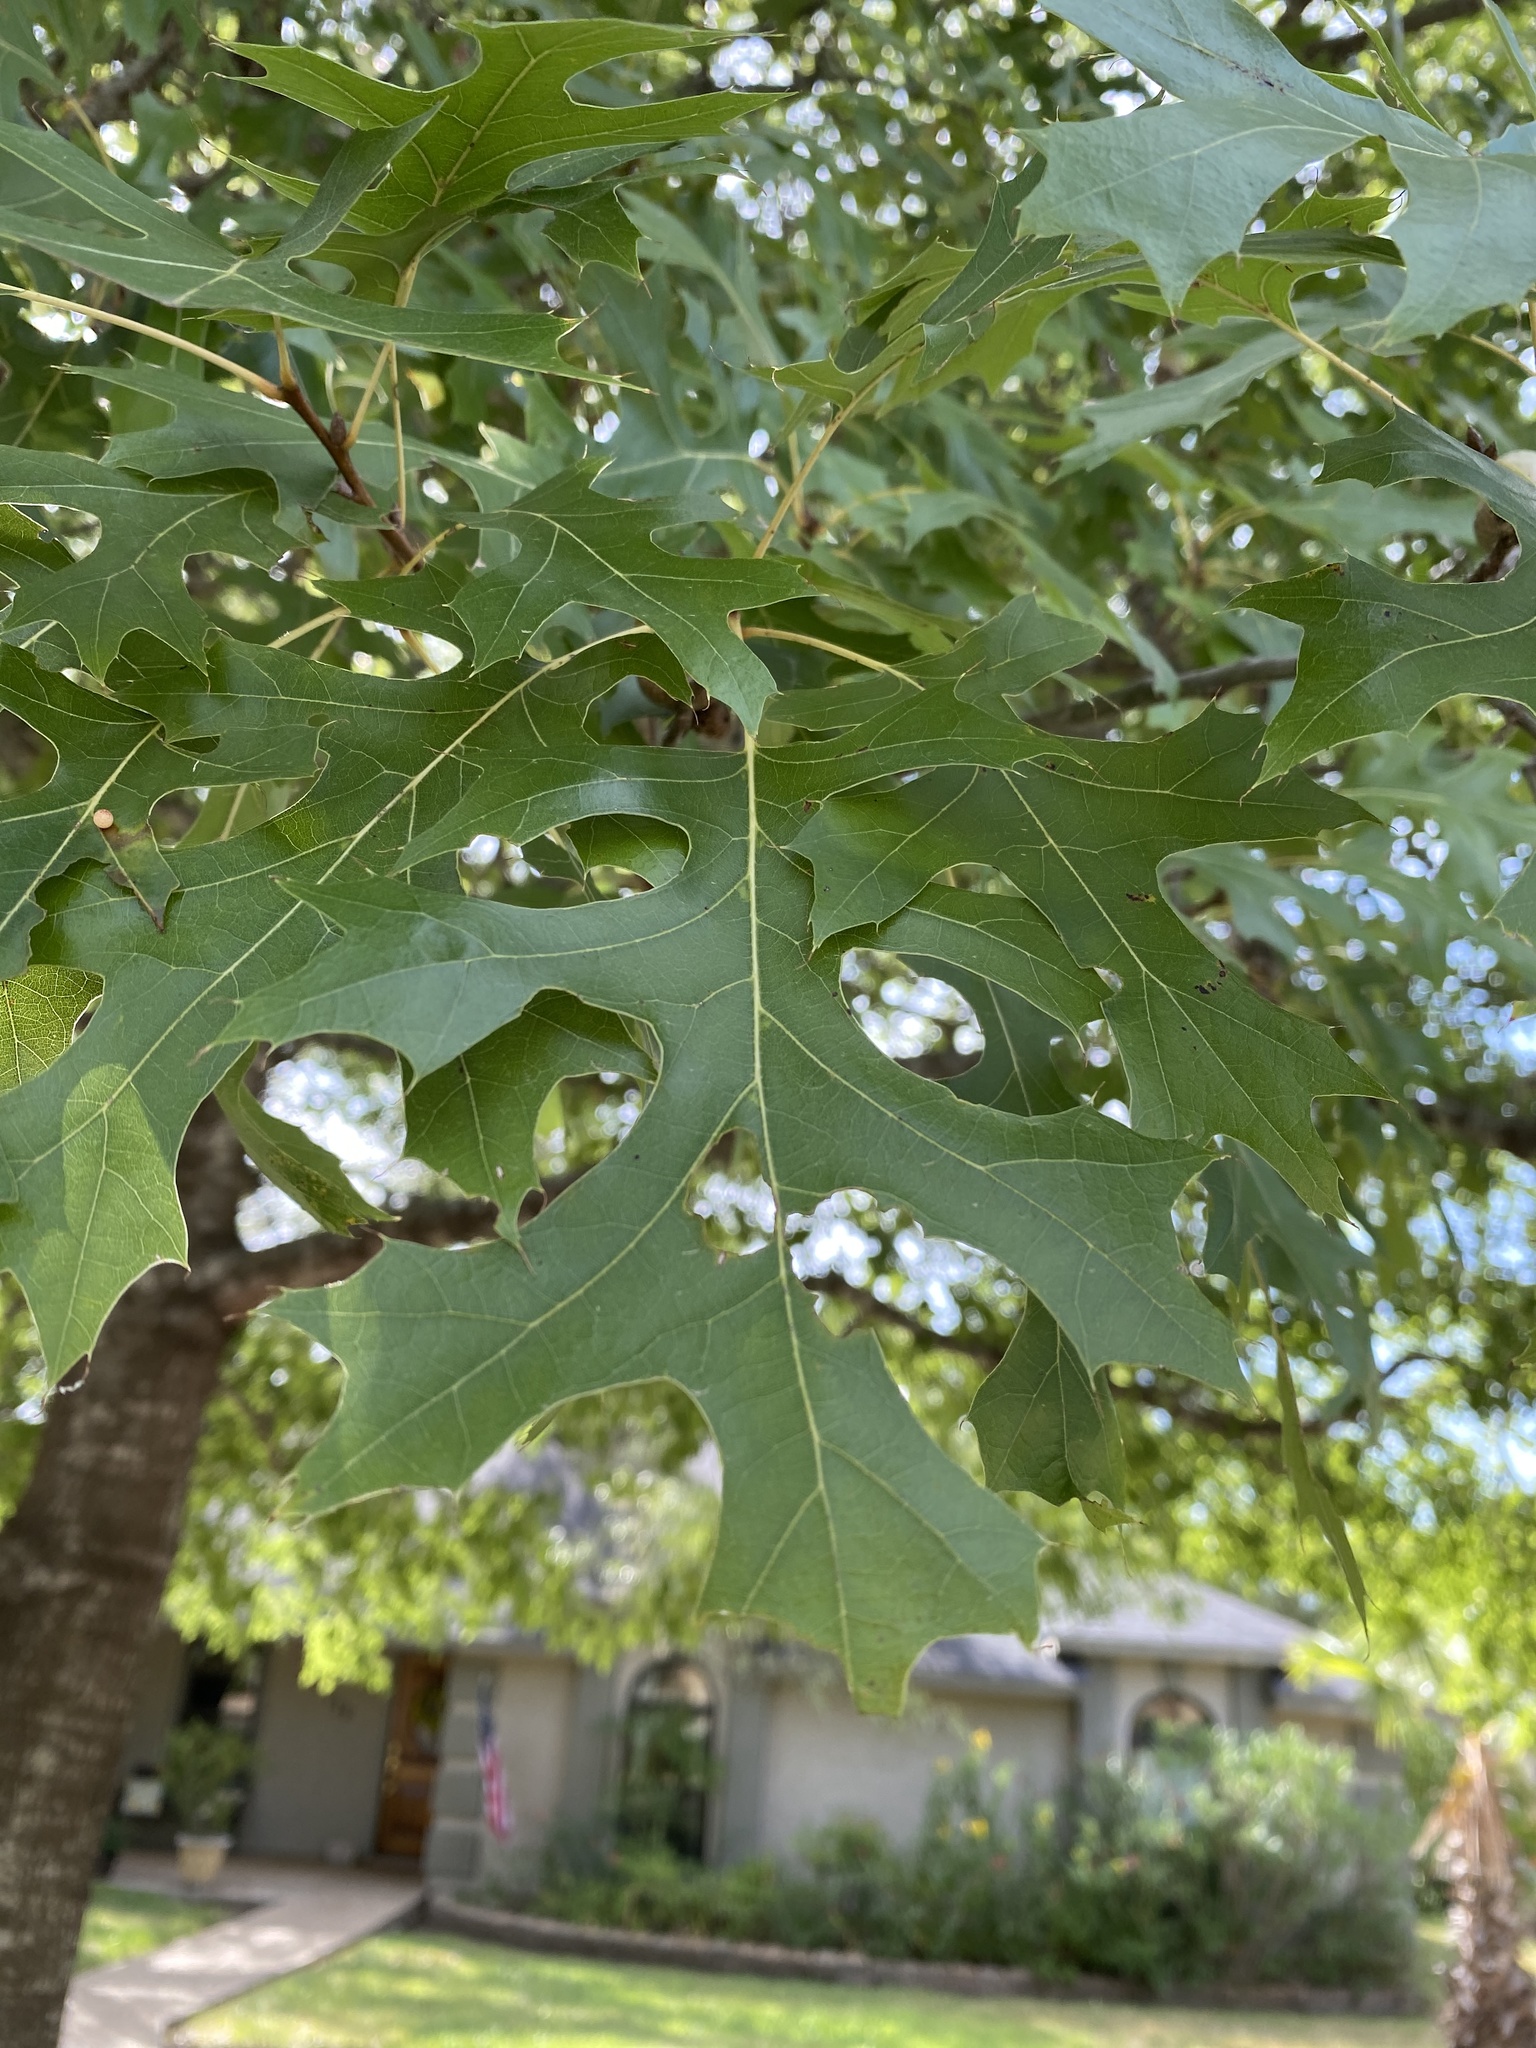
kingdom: Plantae
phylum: Tracheophyta
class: Magnoliopsida
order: Fagales
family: Fagaceae
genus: Quercus
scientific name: Quercus shumardii
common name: Shumard oak
